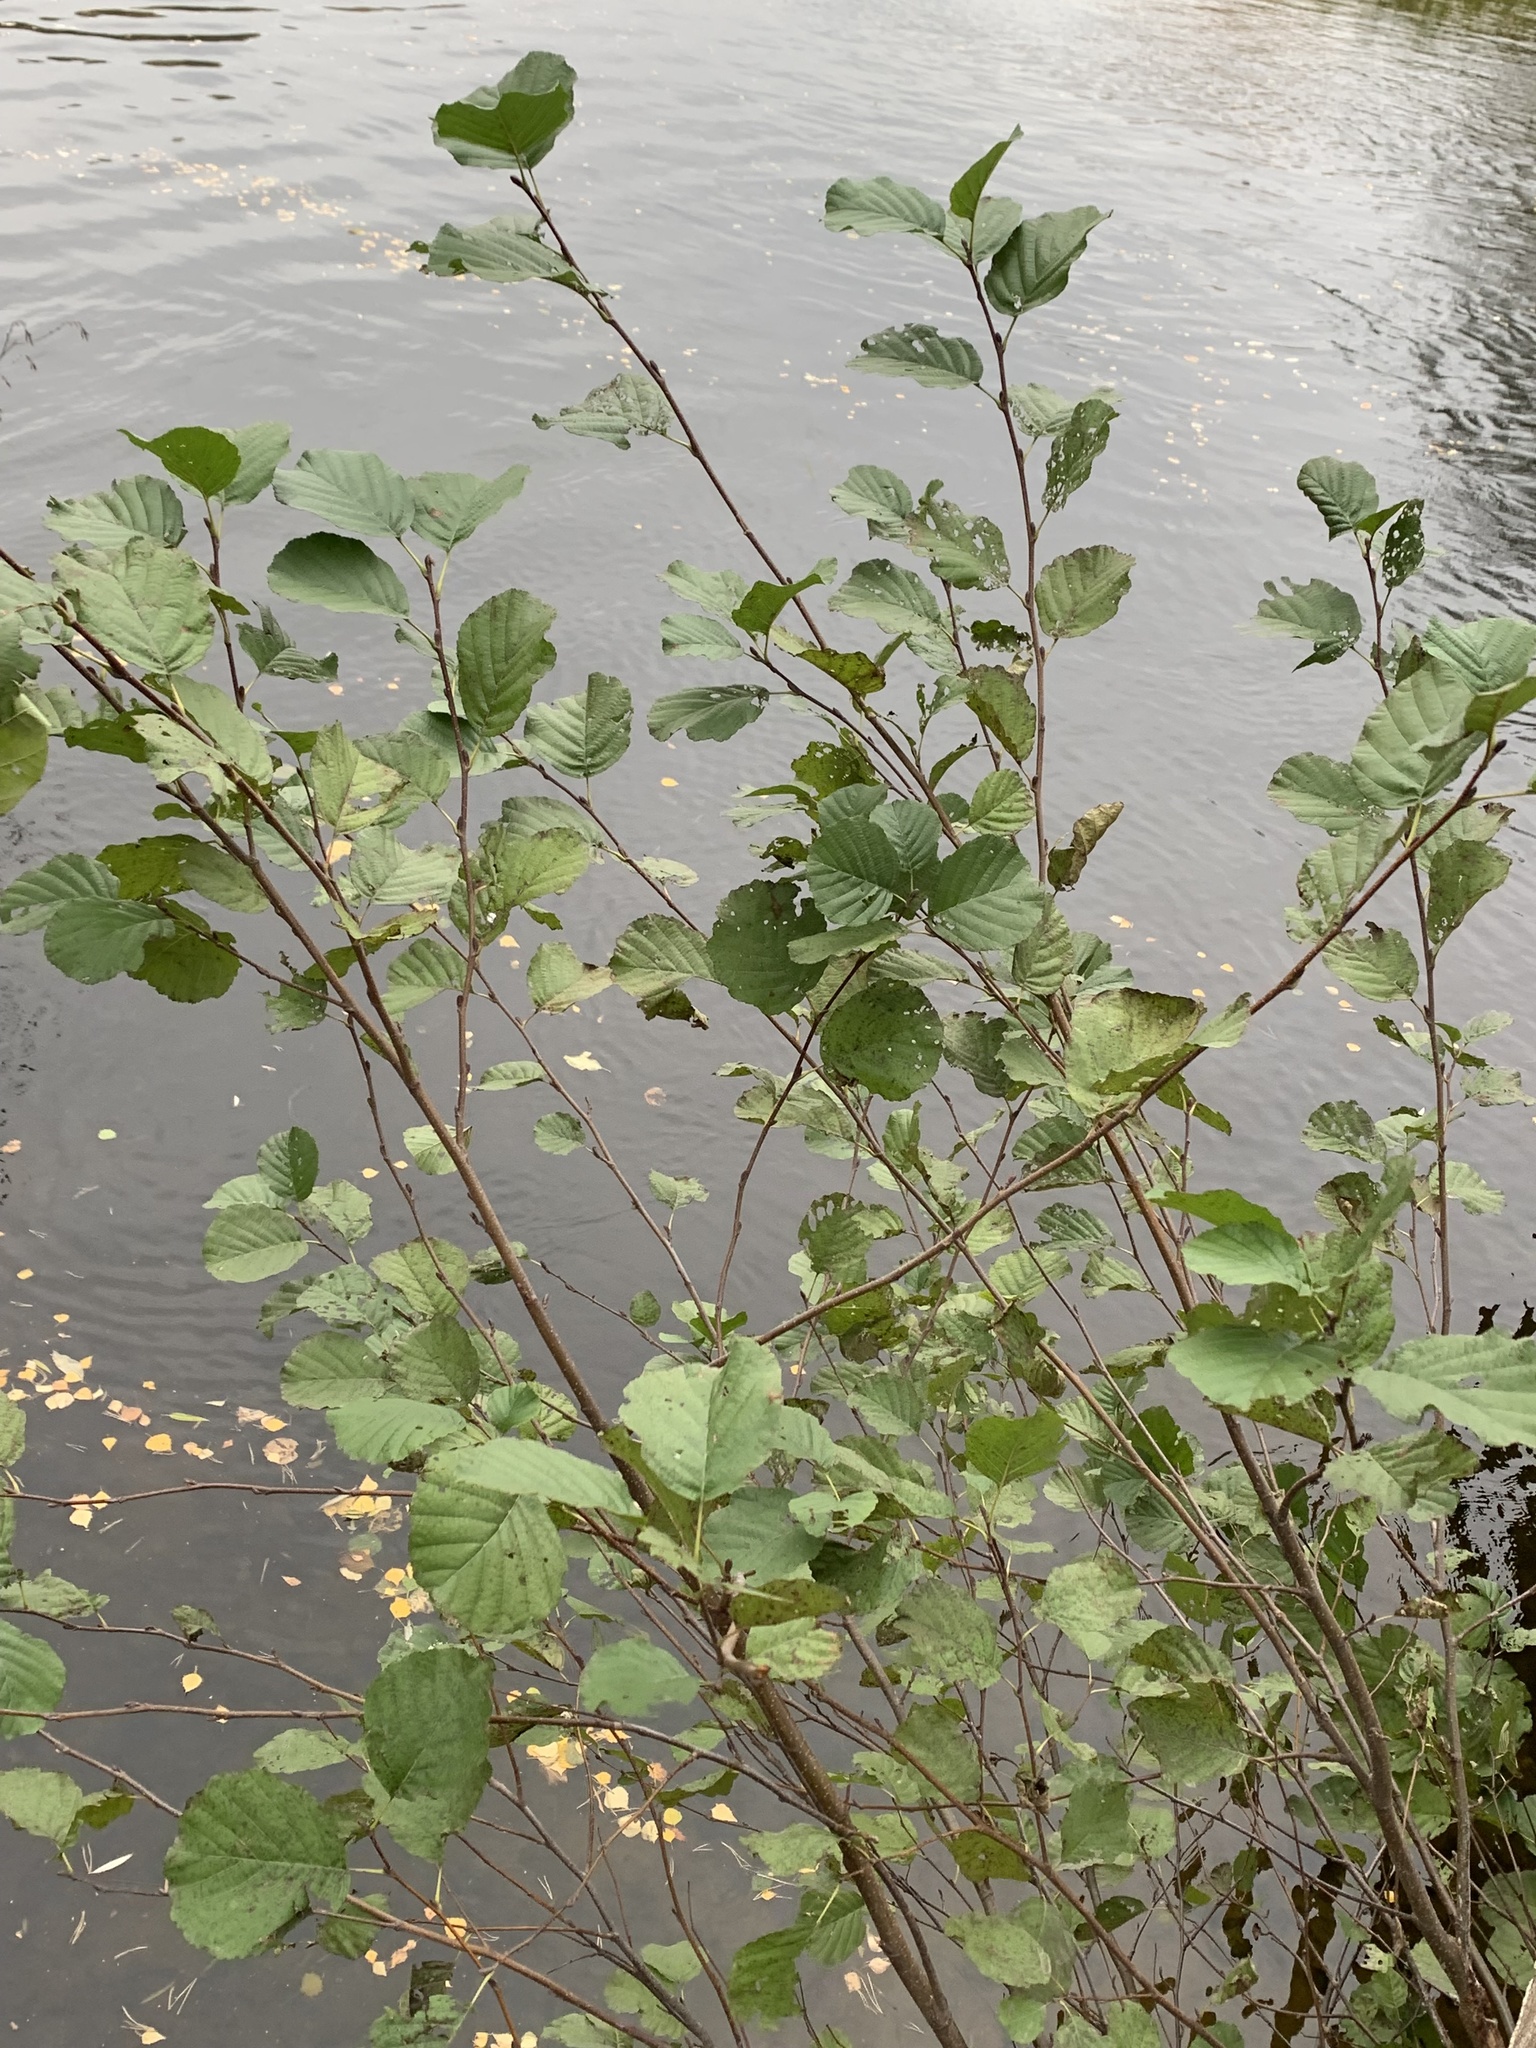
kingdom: Plantae
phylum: Tracheophyta
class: Magnoliopsida
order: Fagales
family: Betulaceae
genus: Alnus
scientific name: Alnus glutinosa
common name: Black alder
